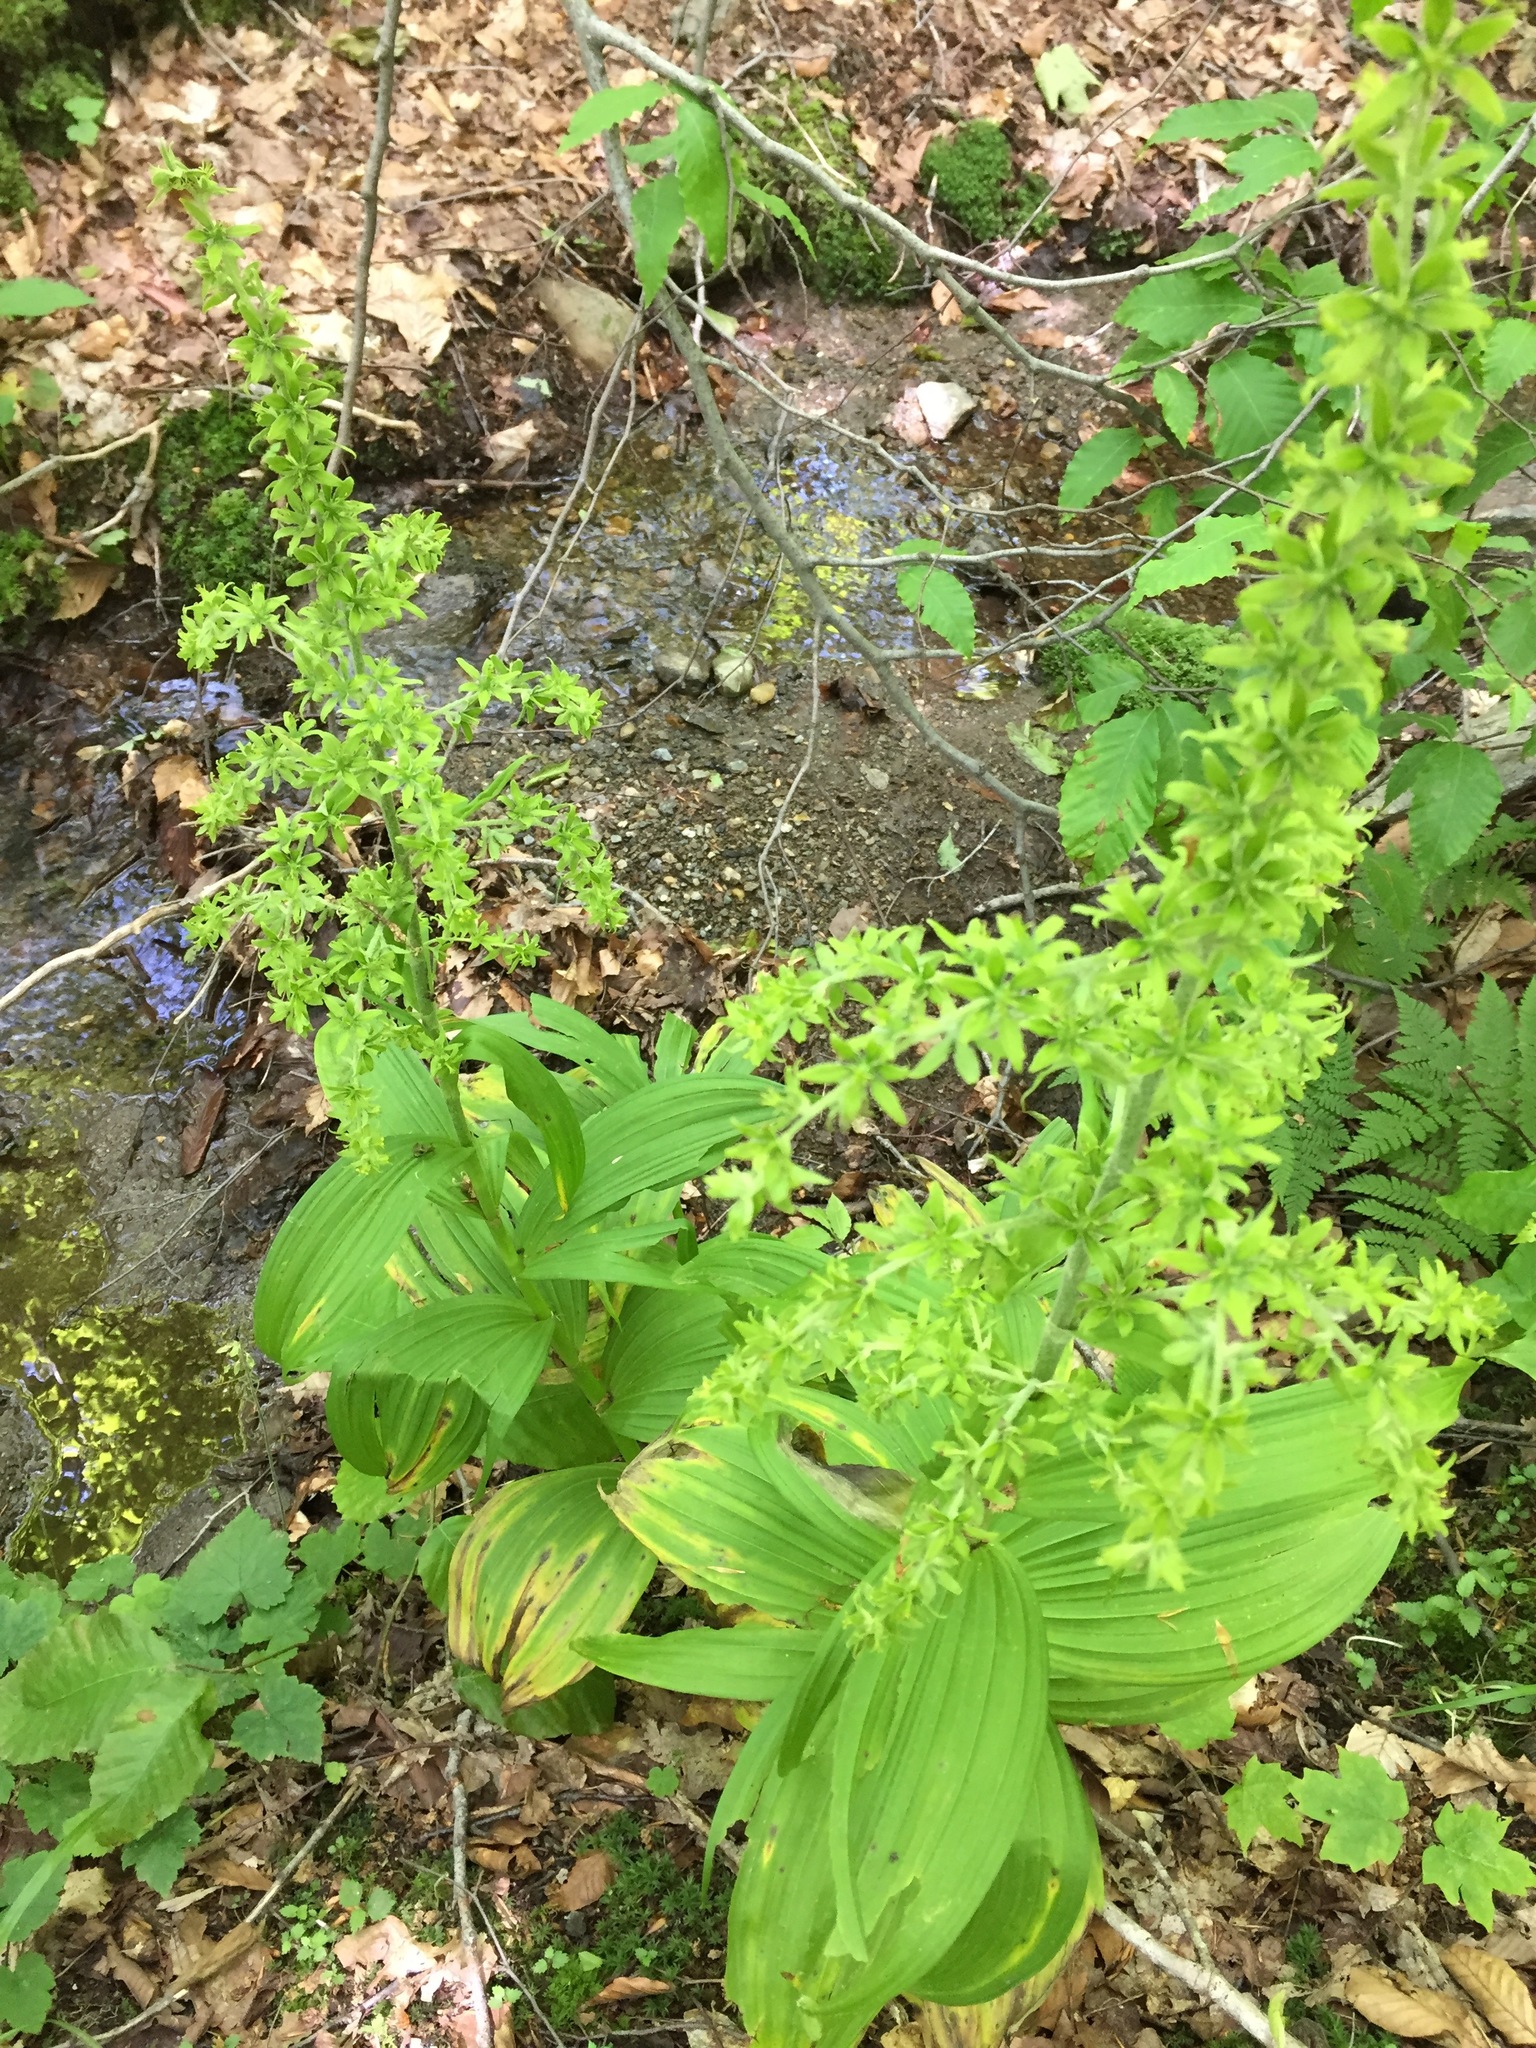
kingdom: Plantae
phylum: Tracheophyta
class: Liliopsida
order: Liliales
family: Melanthiaceae
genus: Veratrum
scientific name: Veratrum viride
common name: American false hellebore
